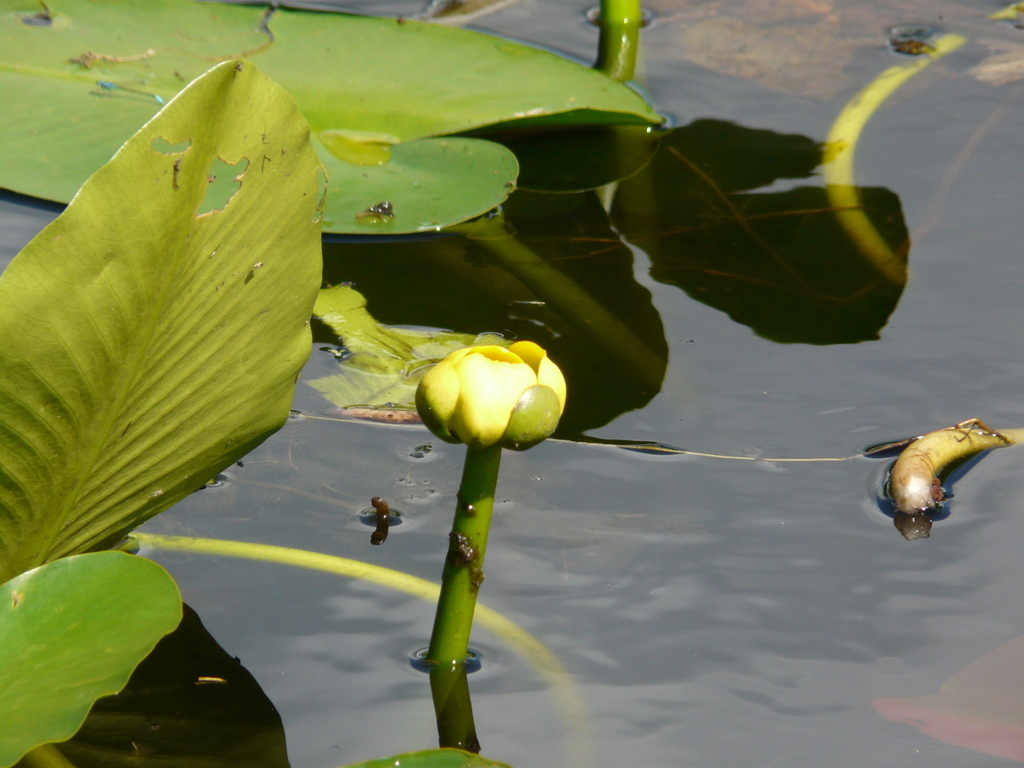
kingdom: Plantae
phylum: Tracheophyta
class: Magnoliopsida
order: Nymphaeales
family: Nymphaeaceae
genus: Nuphar
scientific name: Nuphar advena
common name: Spatter-dock
